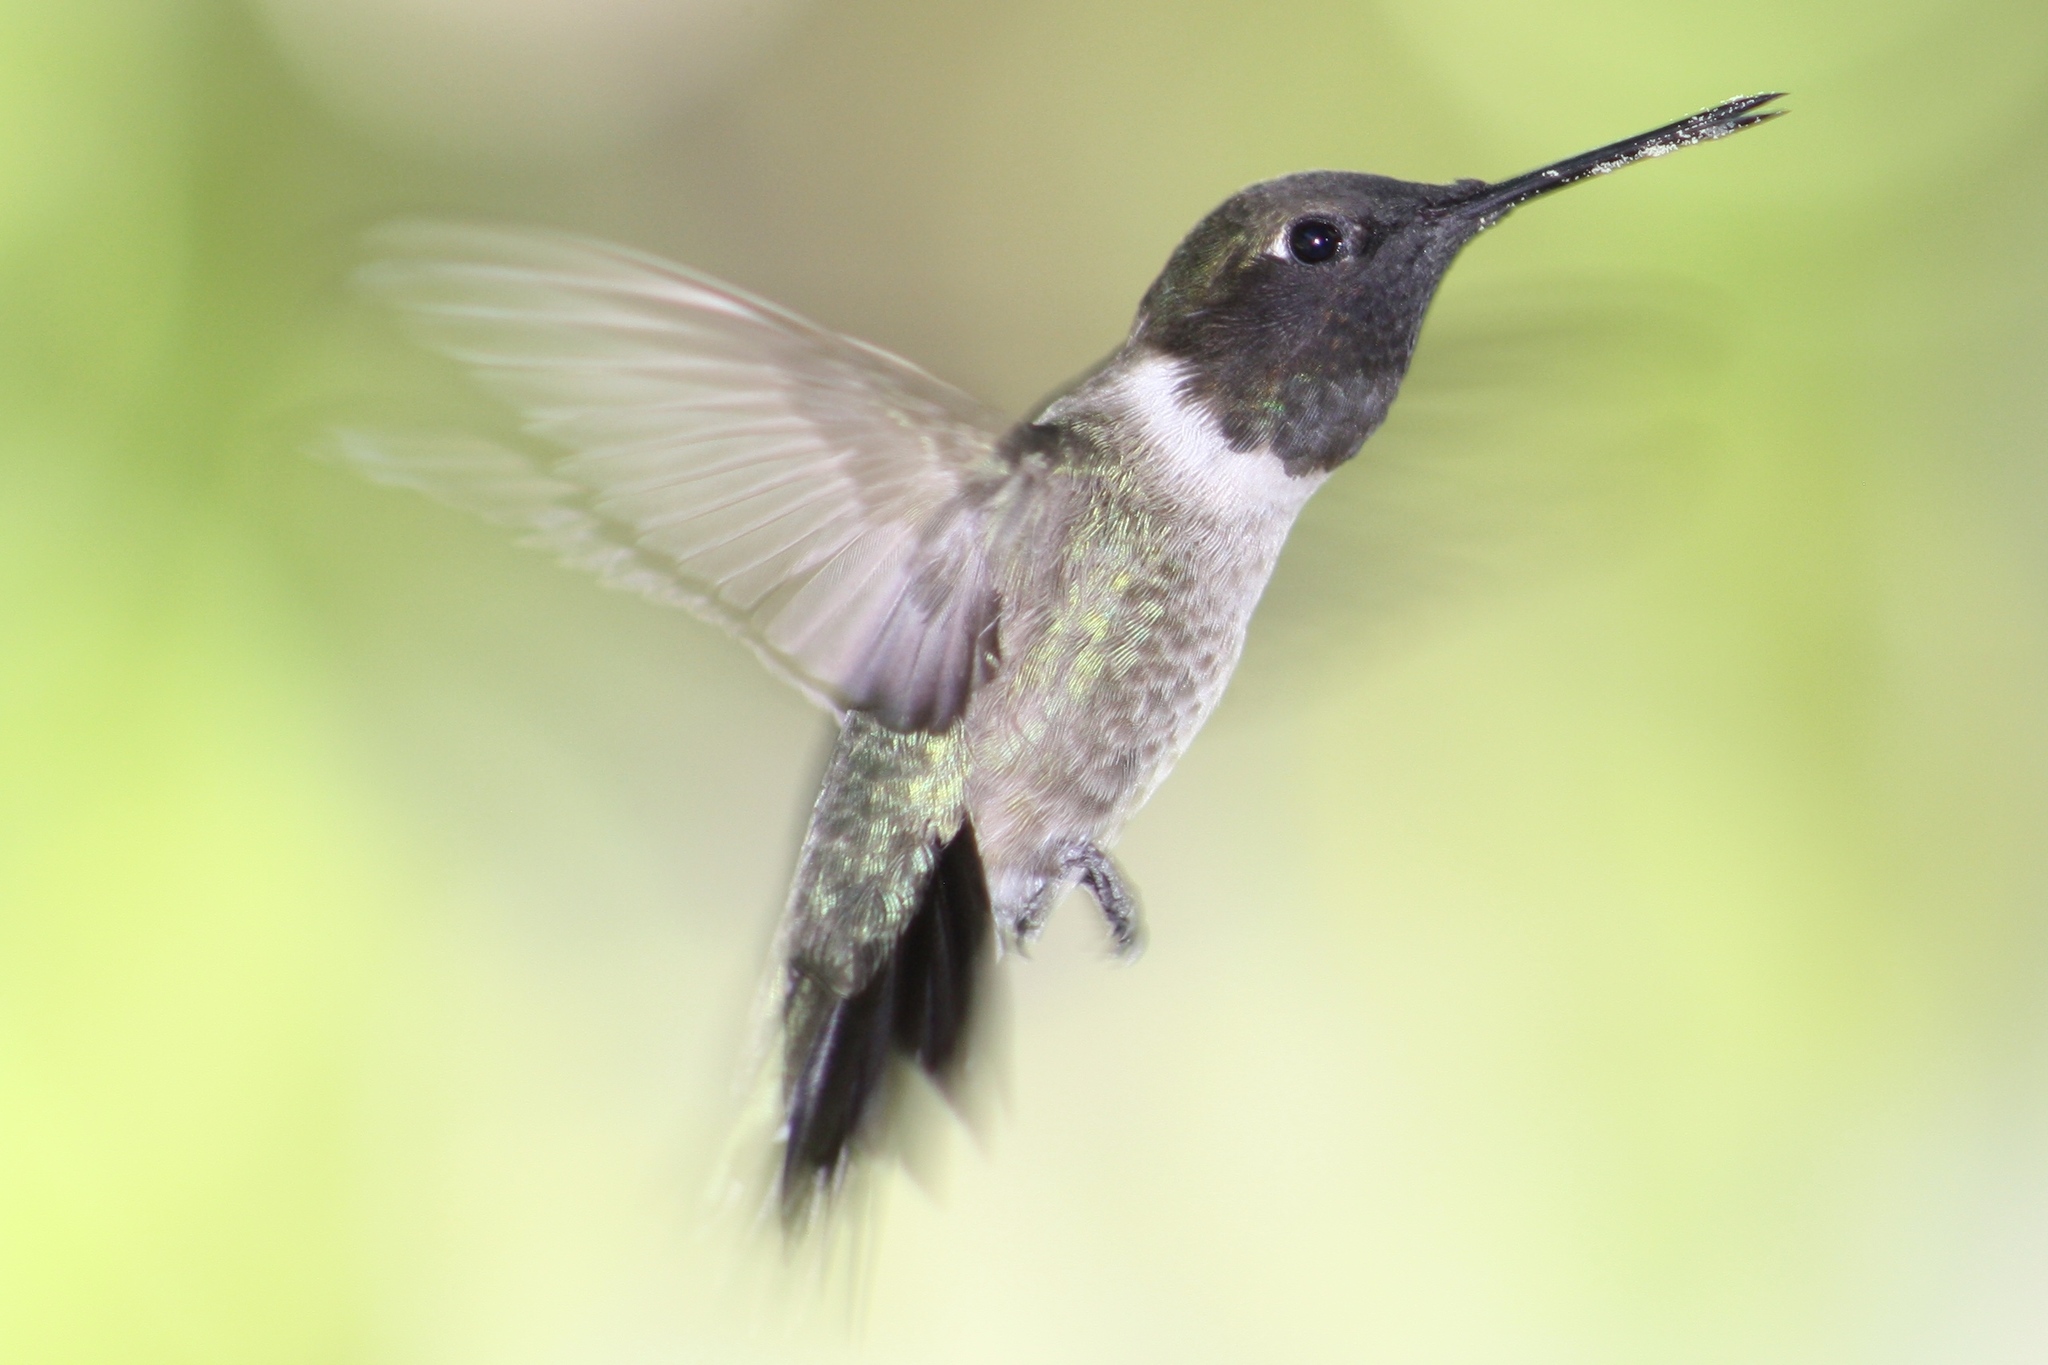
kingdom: Animalia
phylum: Chordata
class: Aves
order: Apodiformes
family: Trochilidae
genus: Archilochus
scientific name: Archilochus alexandri
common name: Black-chinned hummingbird
